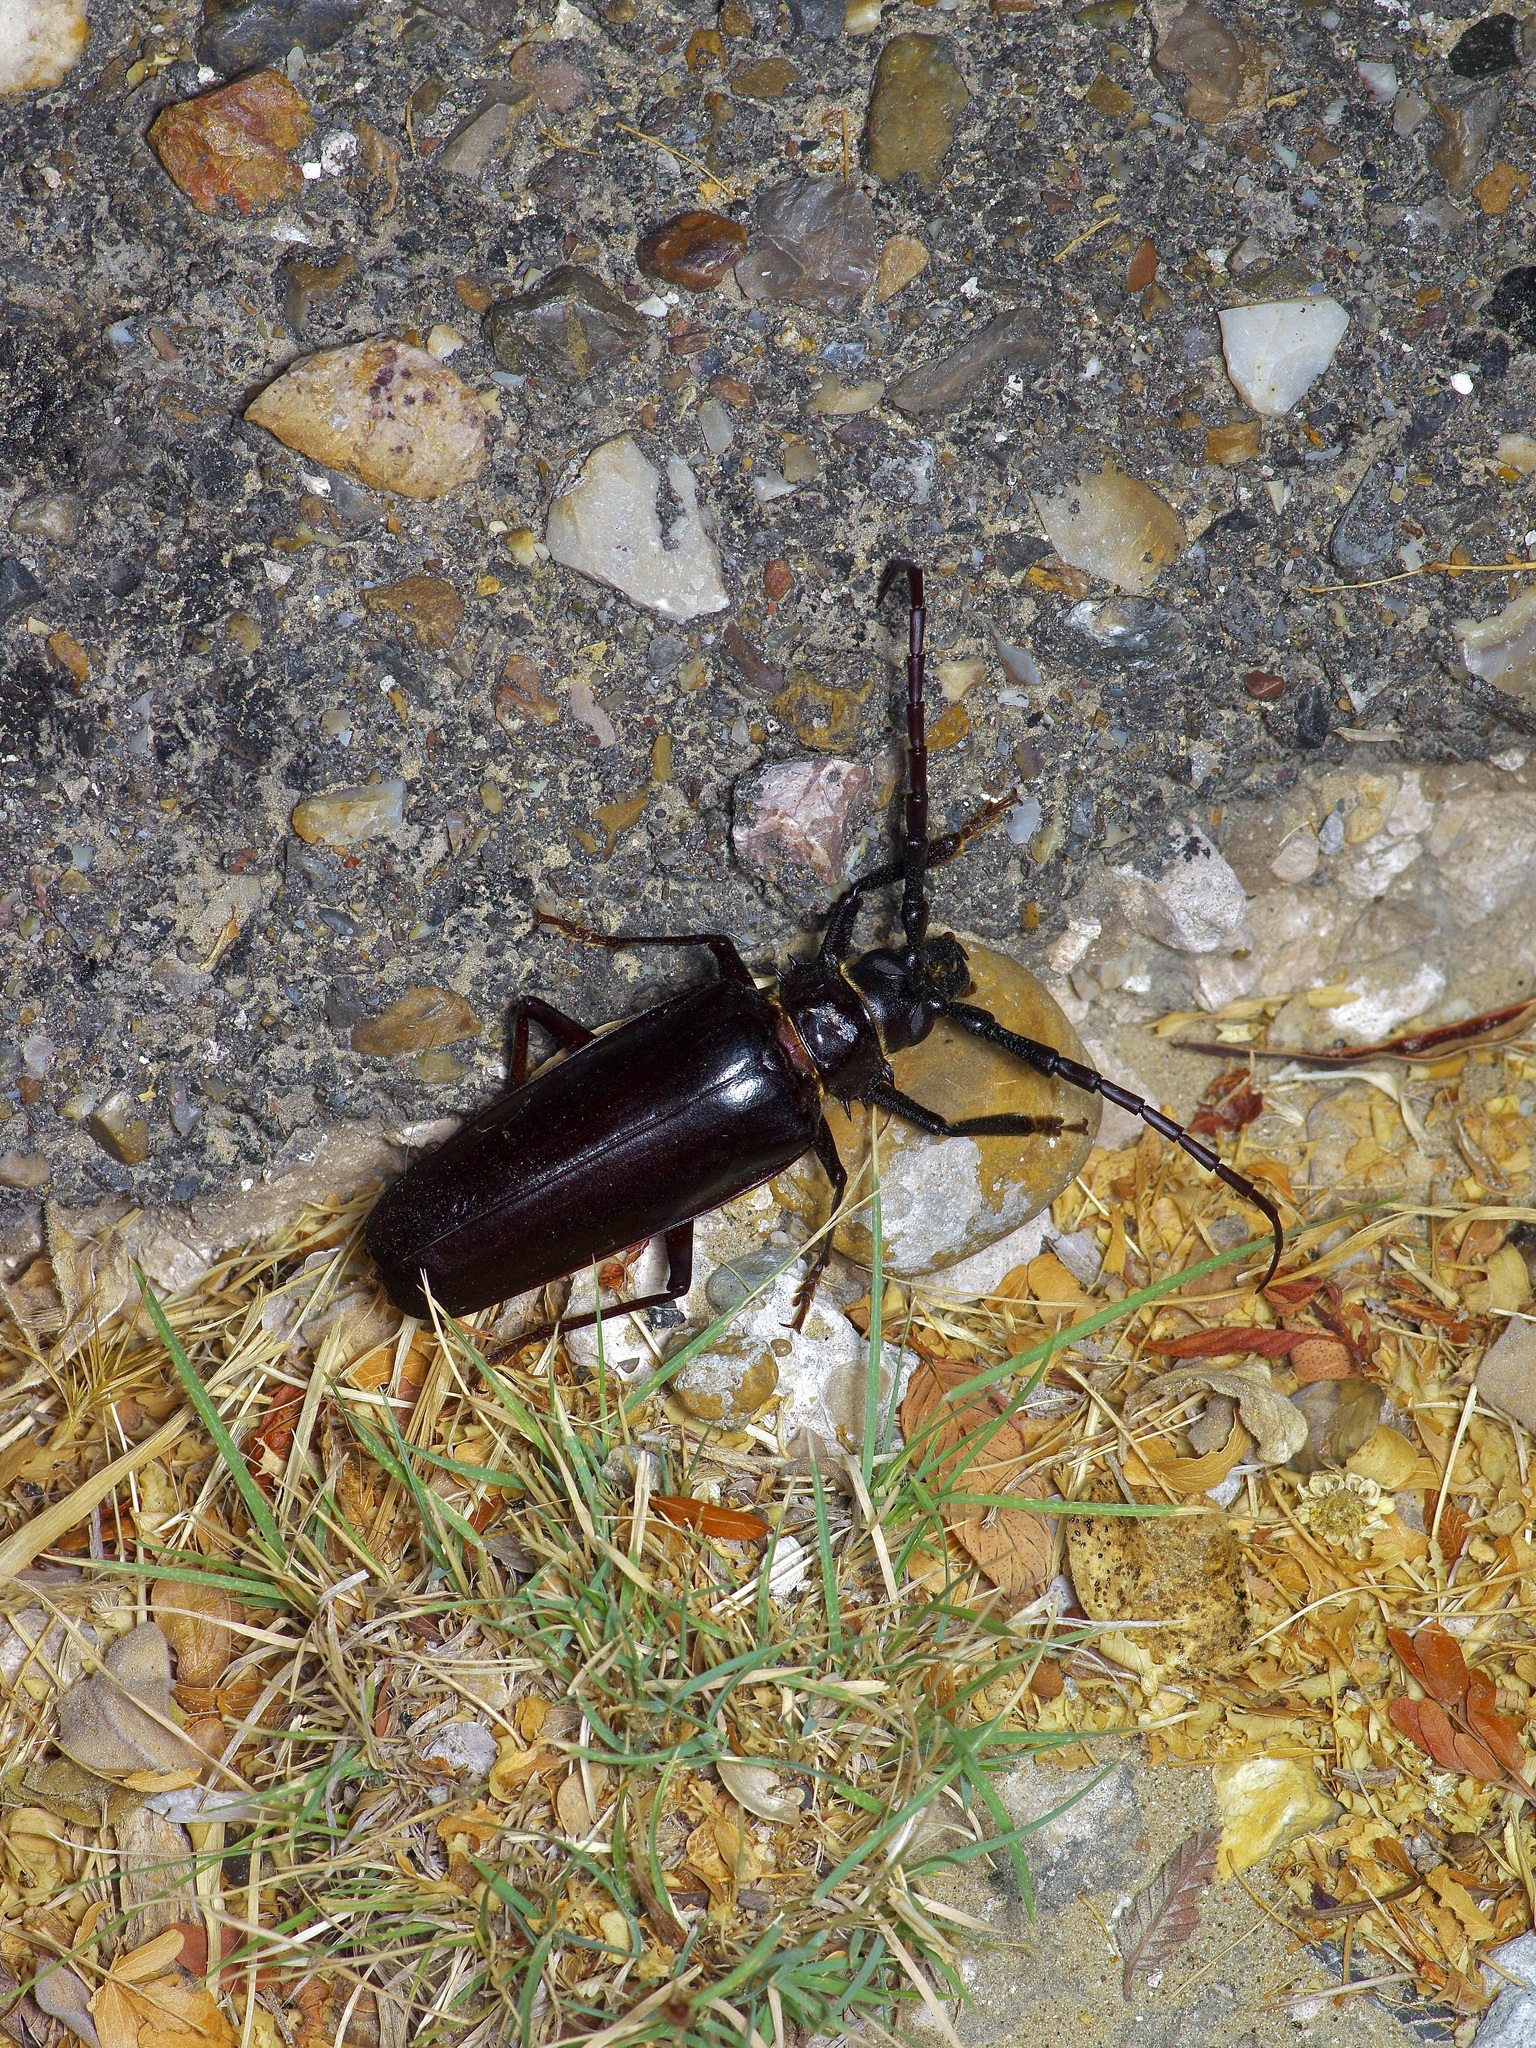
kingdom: Animalia
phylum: Arthropoda
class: Insecta
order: Coleoptera
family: Cerambycidae
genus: Derobrachus
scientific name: Derobrachus hovorei
